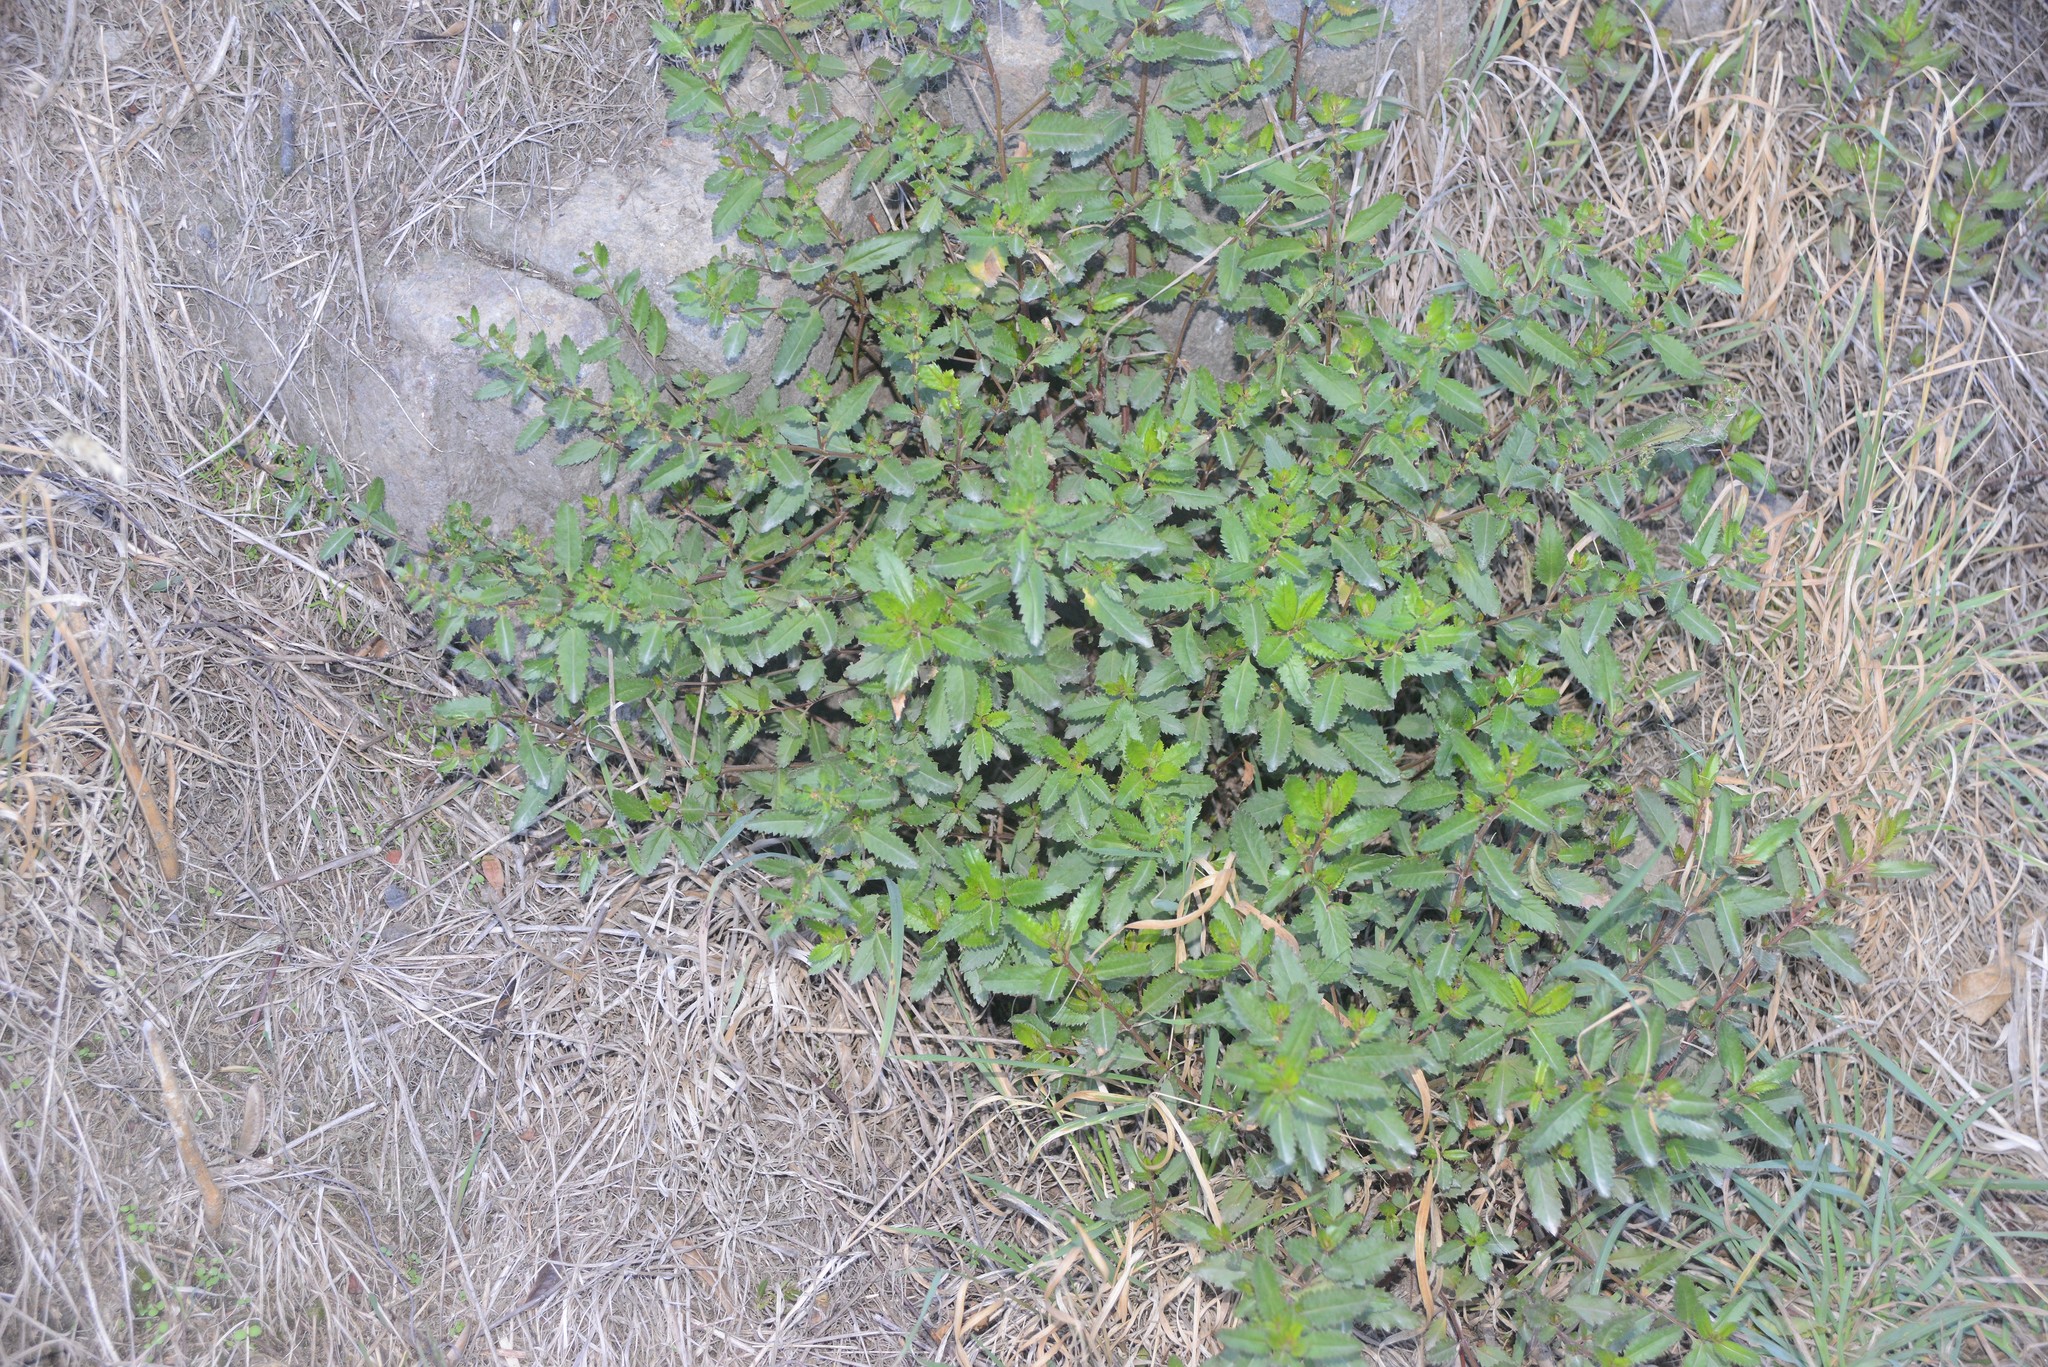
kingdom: Plantae
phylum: Tracheophyta
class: Magnoliopsida
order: Saxifragales
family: Haloragaceae
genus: Haloragis
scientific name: Haloragis erecta
